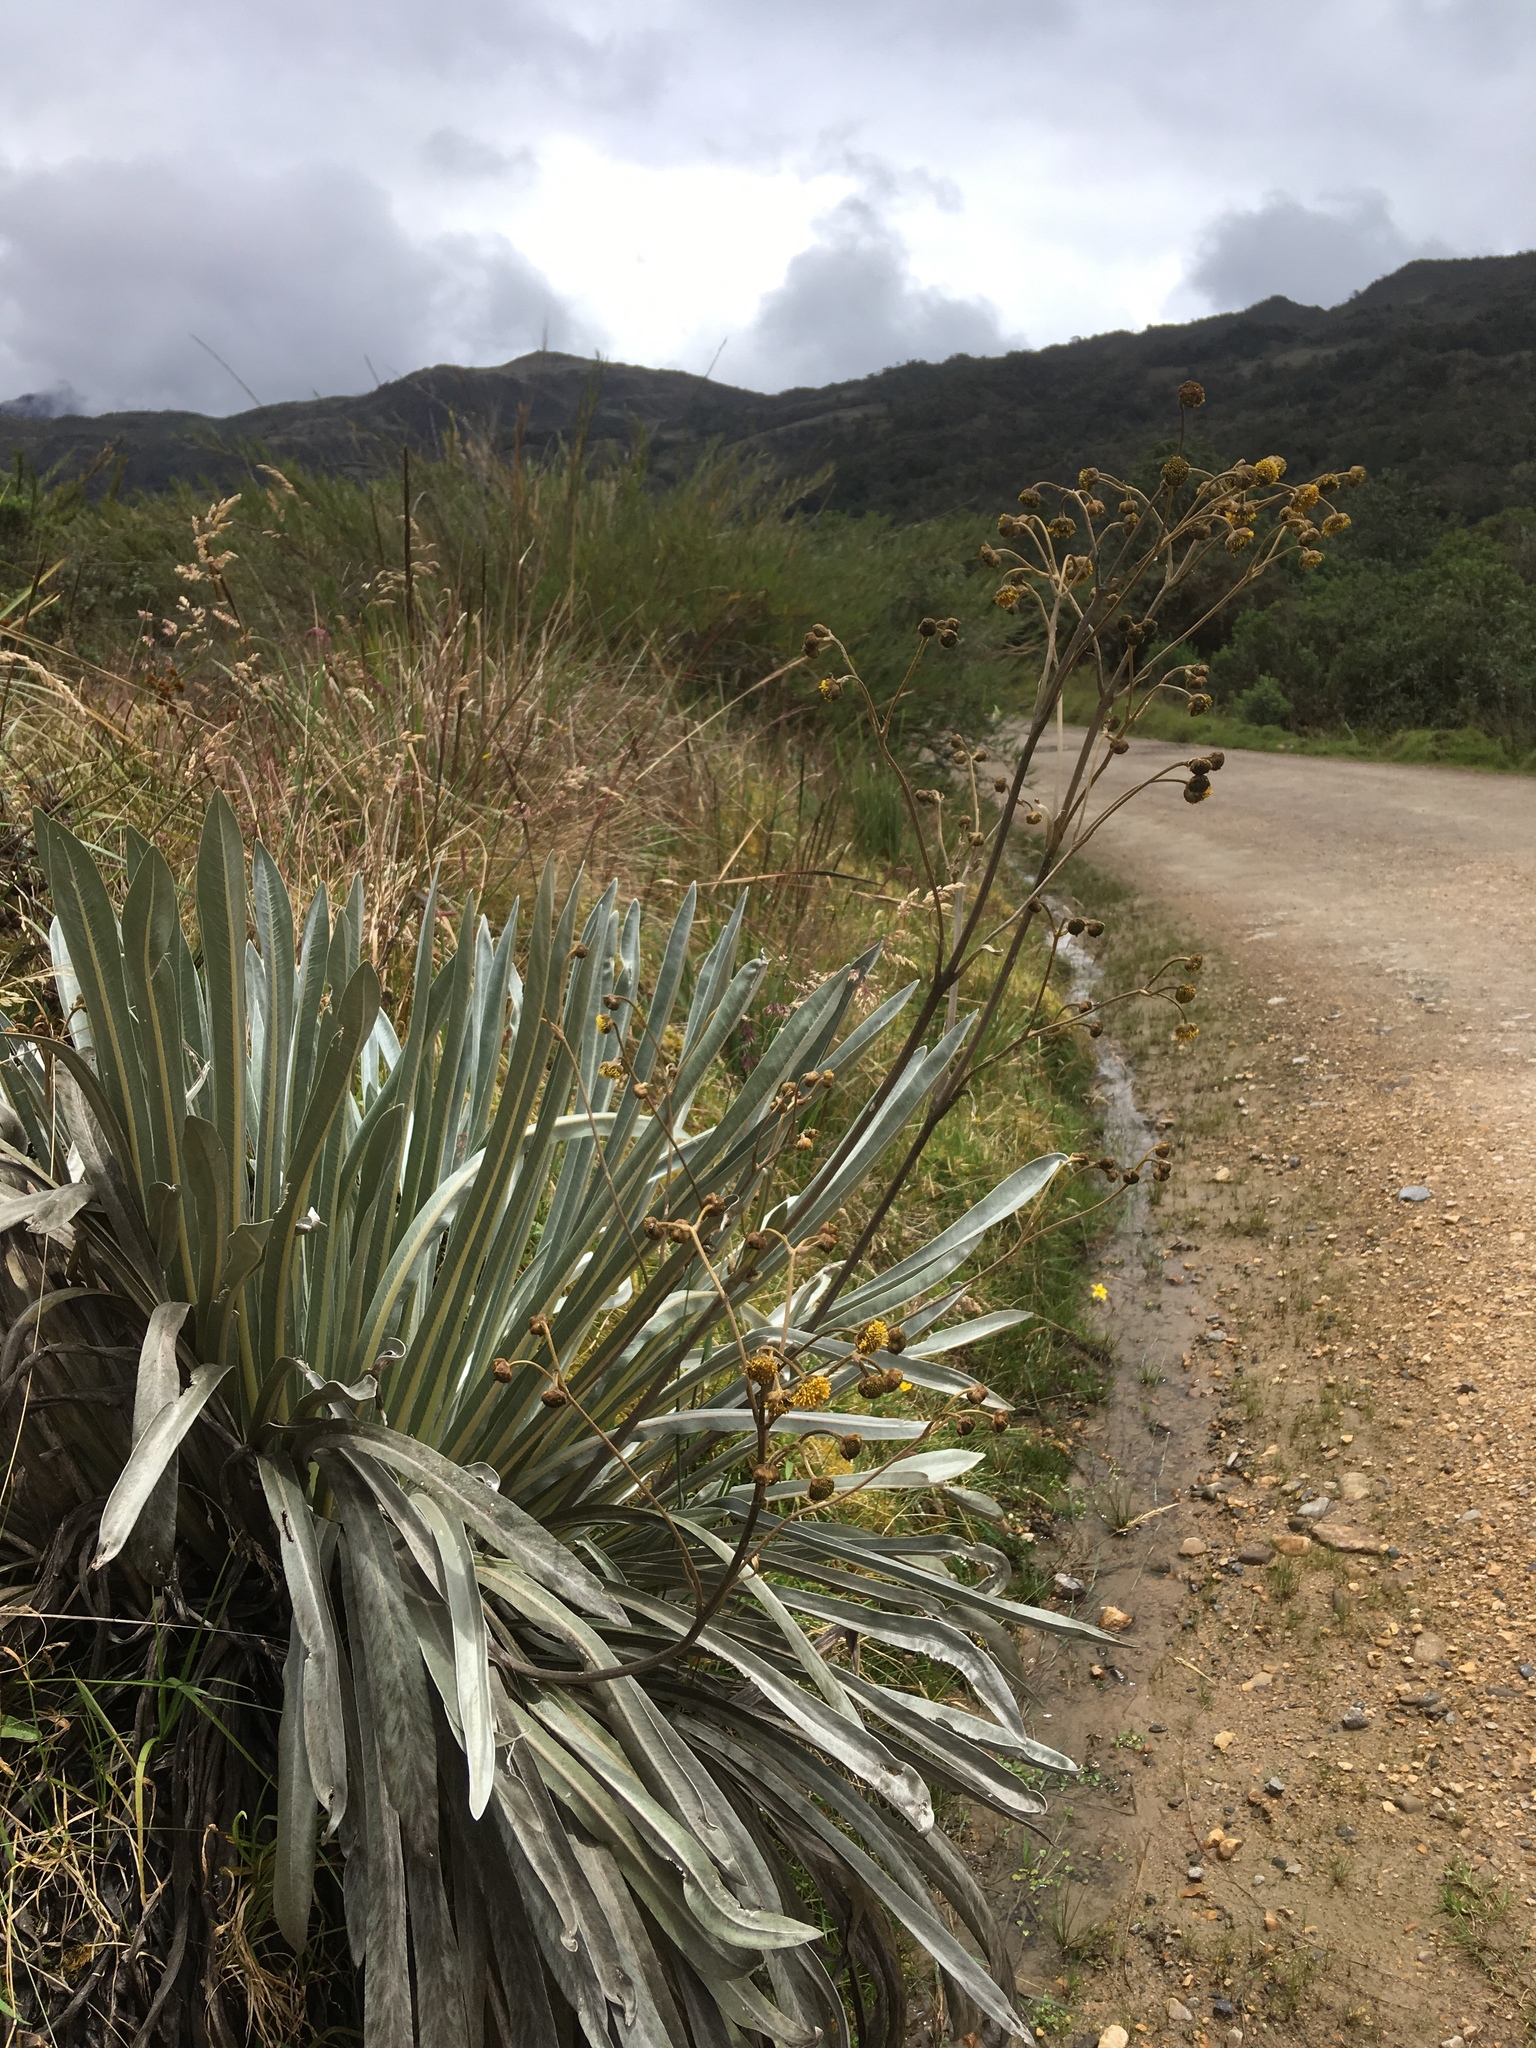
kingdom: Plantae
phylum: Tracheophyta
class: Magnoliopsida
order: Asterales
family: Asteraceae
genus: Espeletia
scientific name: Espeletia argentea
